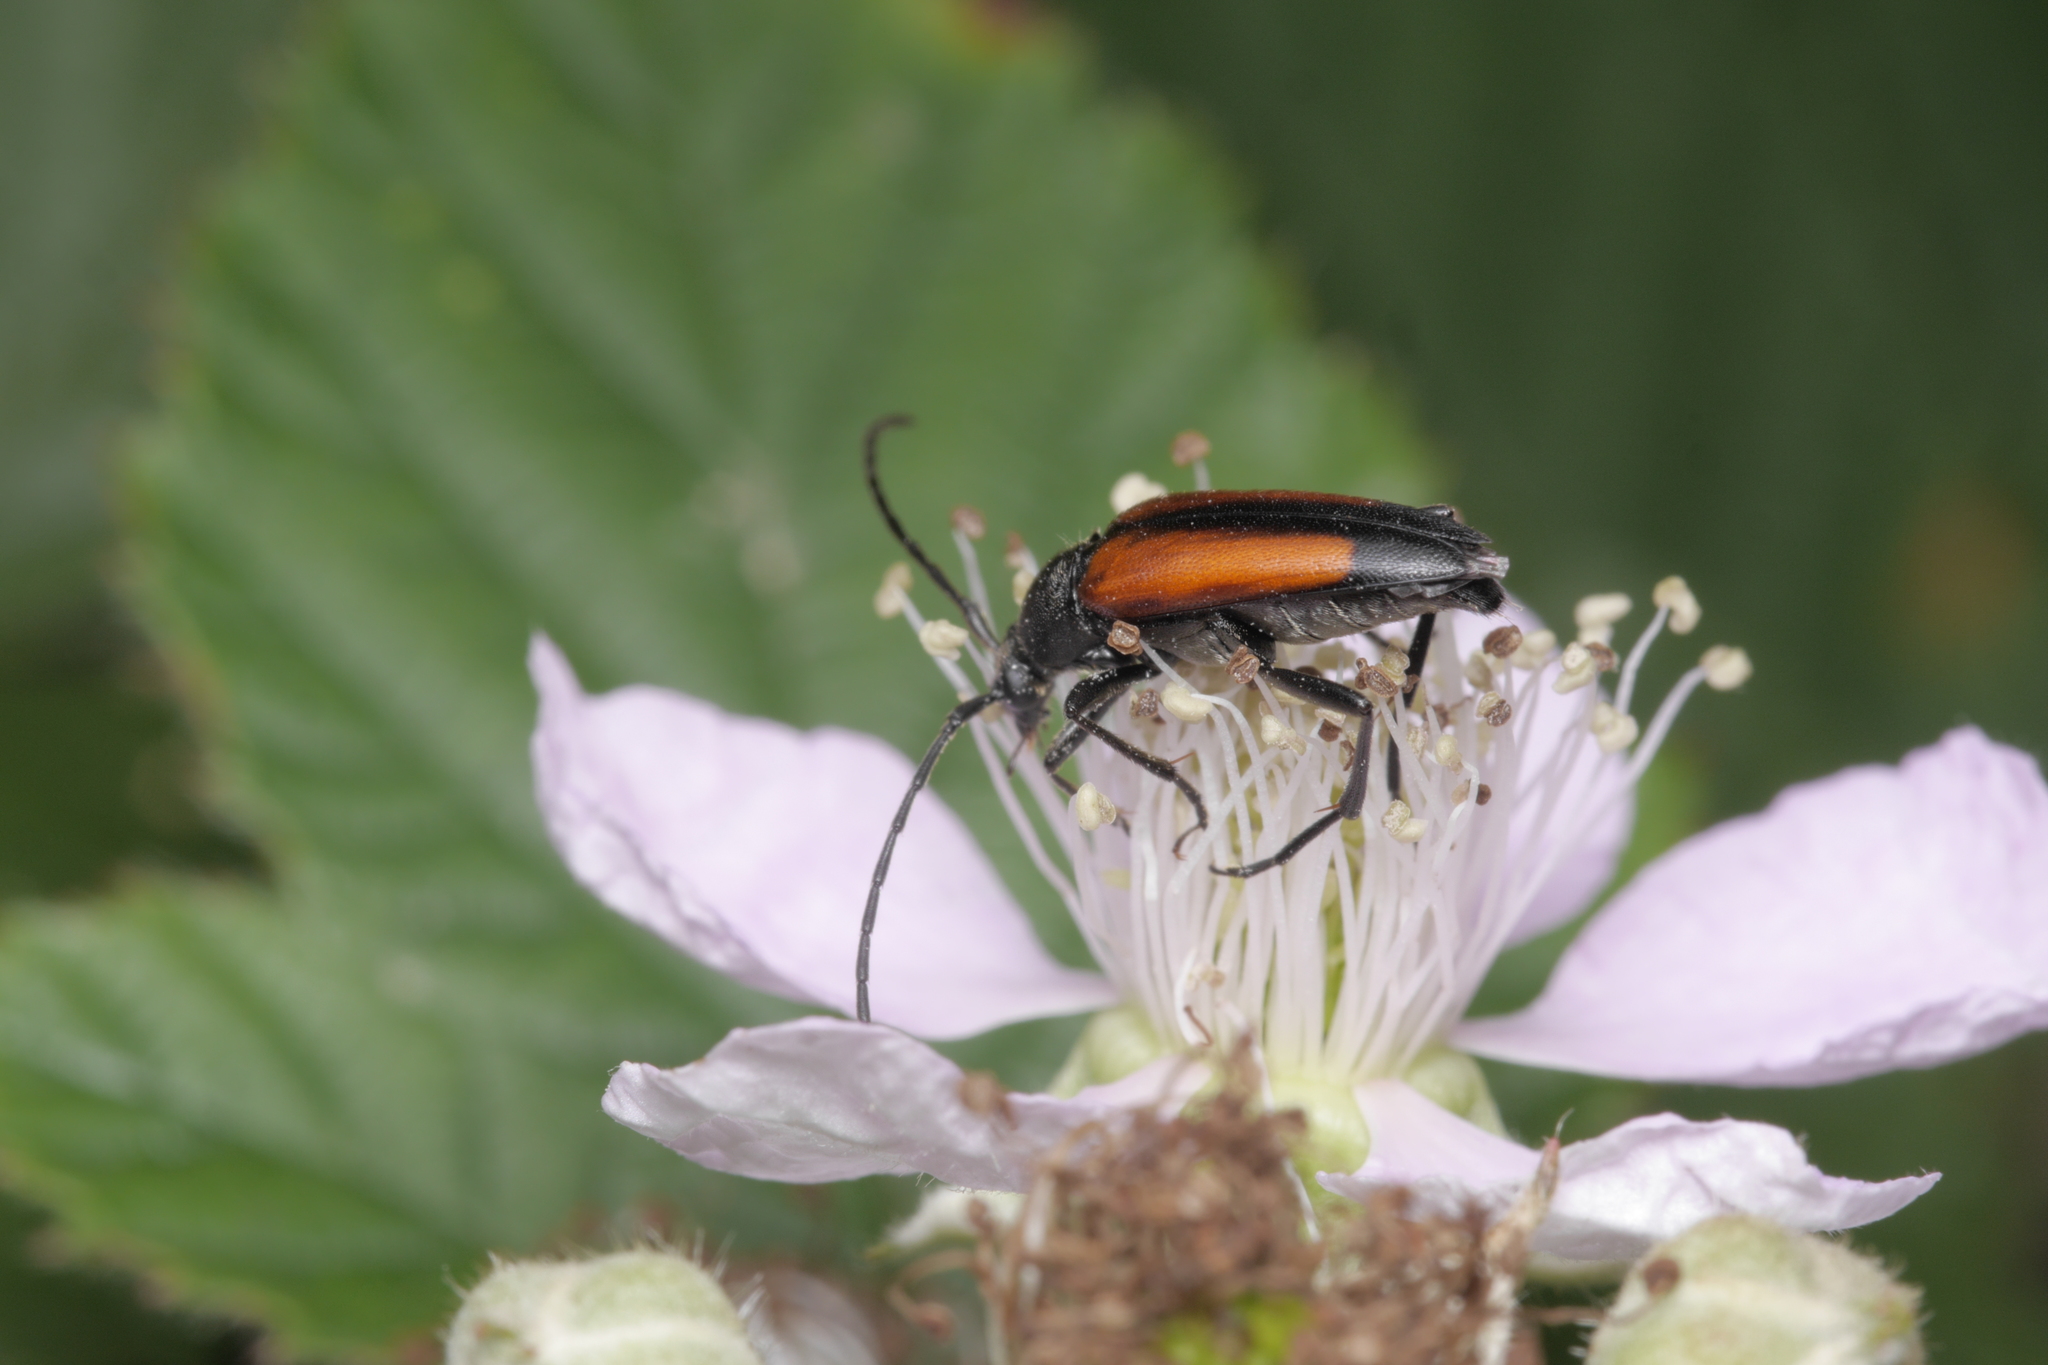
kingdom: Animalia
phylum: Arthropoda
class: Insecta
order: Coleoptera
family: Cerambycidae
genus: Stenurella
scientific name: Stenurella melanura
